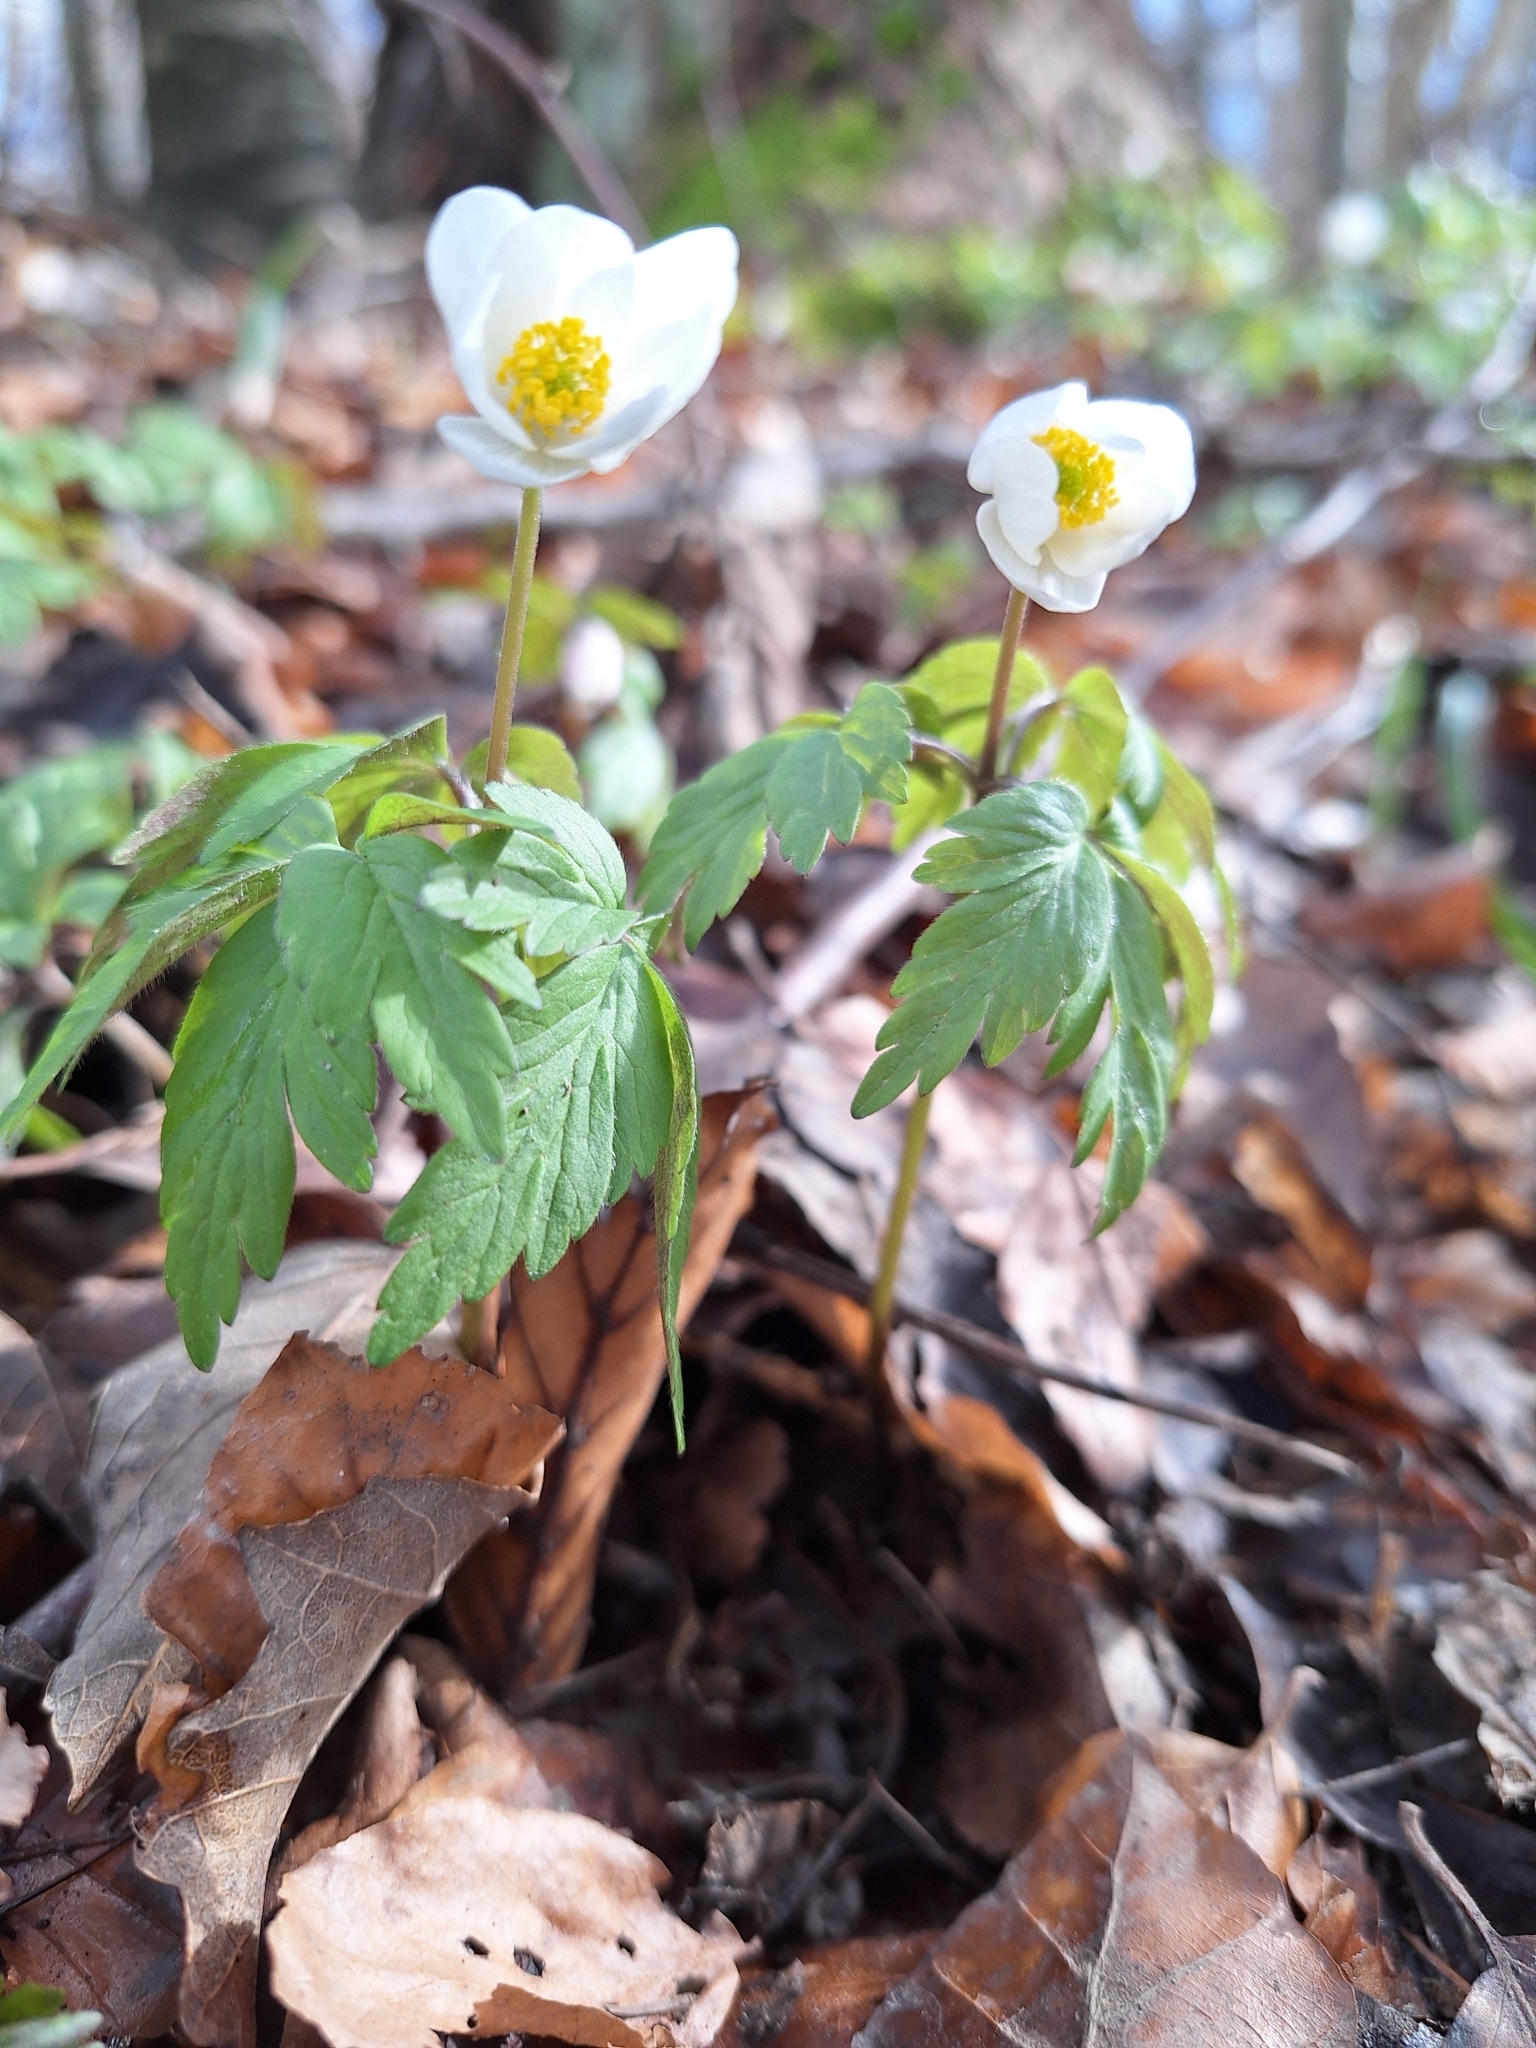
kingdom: Plantae
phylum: Tracheophyta
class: Magnoliopsida
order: Ranunculales
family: Ranunculaceae
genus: Anemone
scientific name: Anemone nemorosa
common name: Wood anemone
